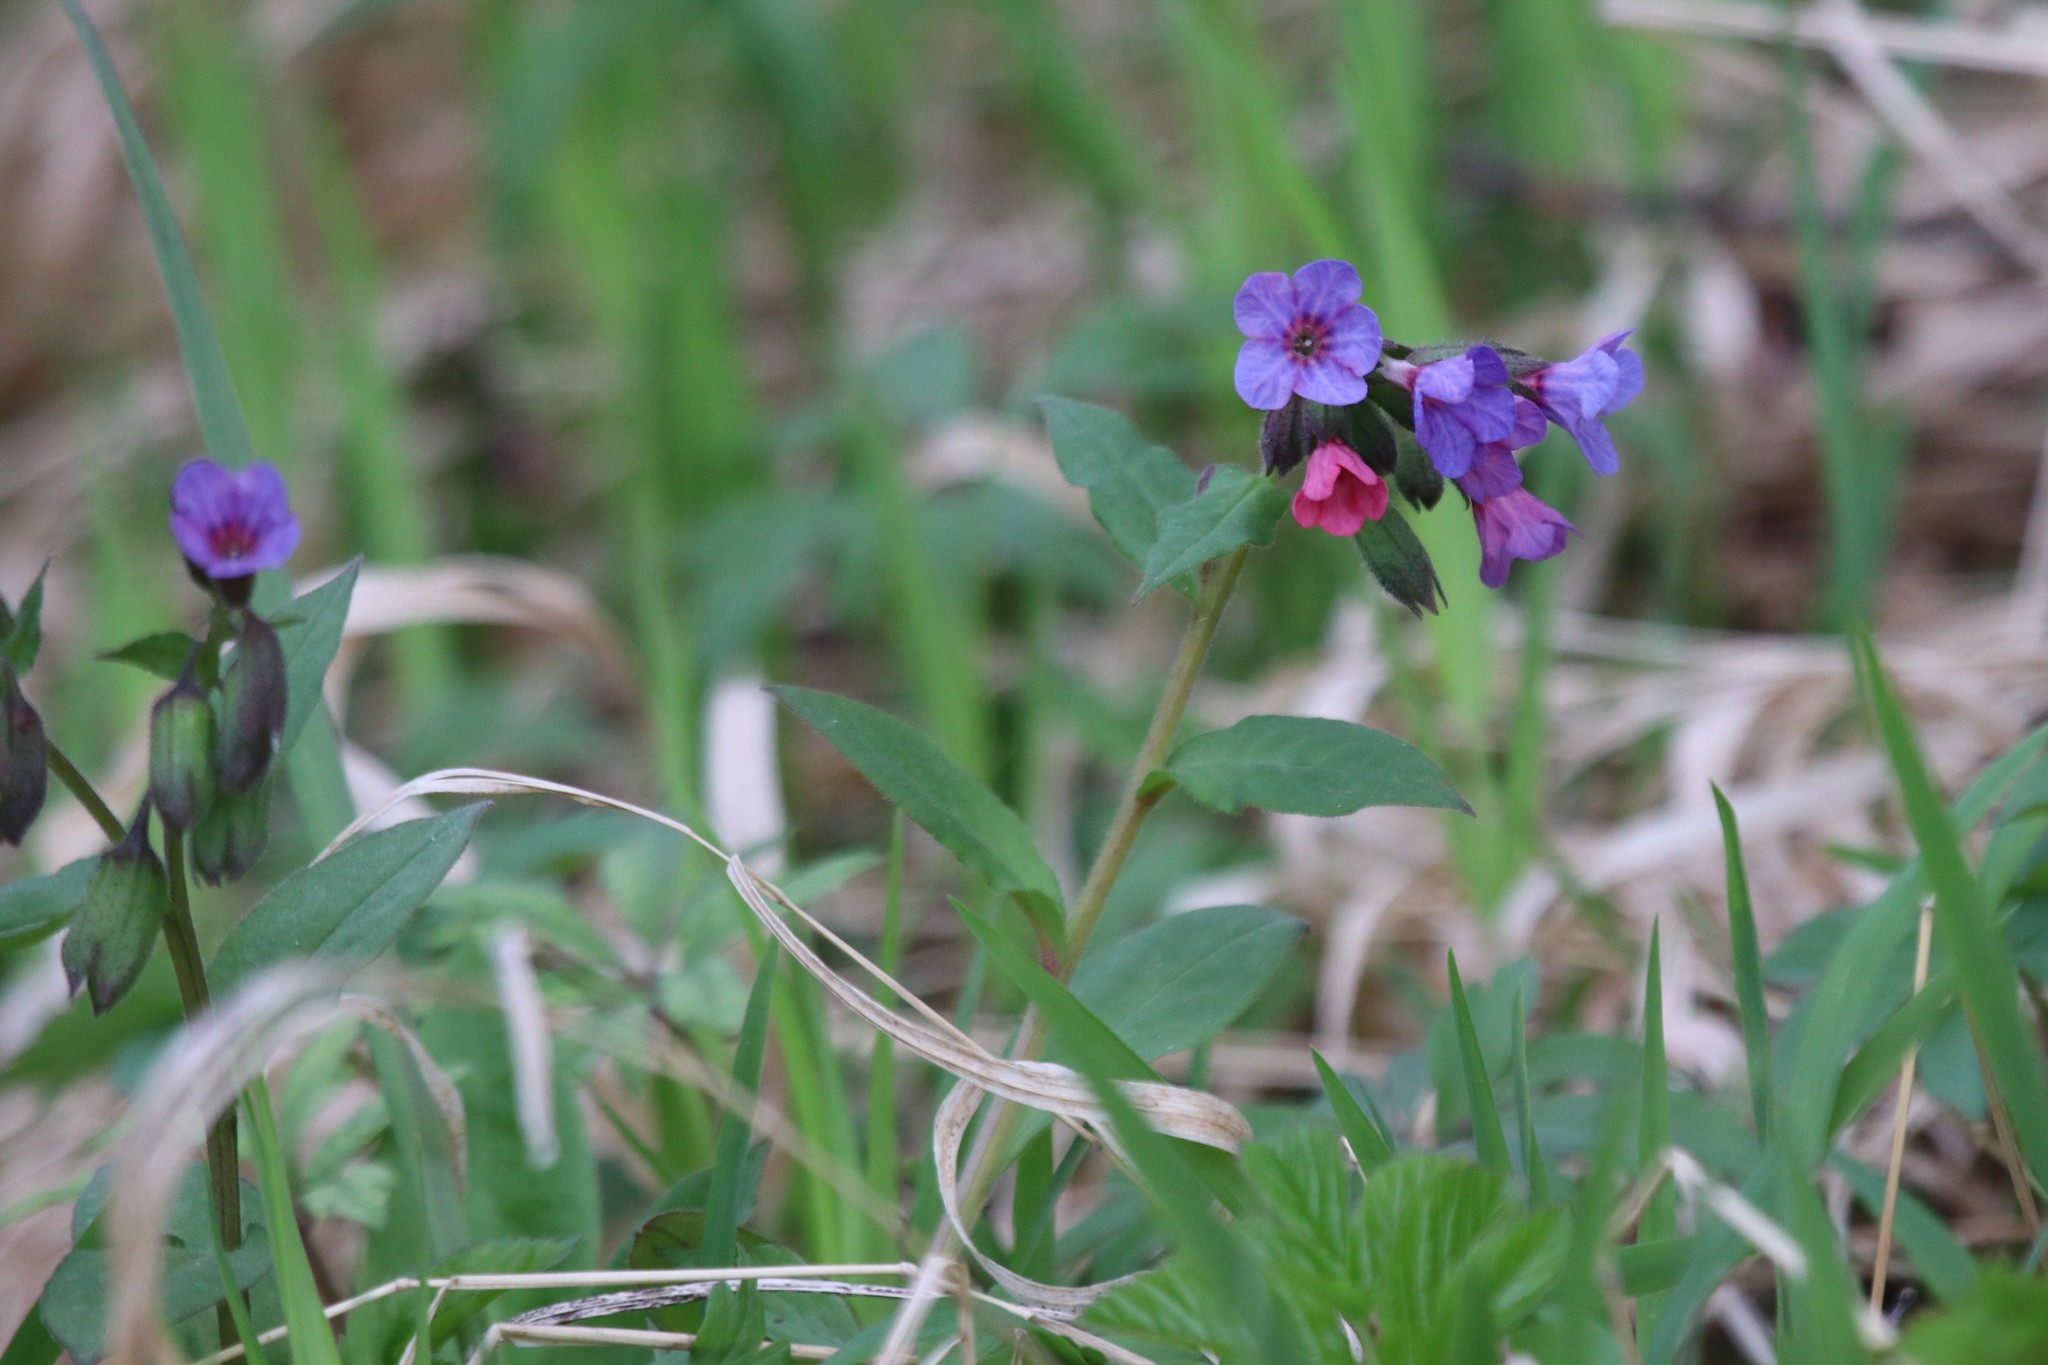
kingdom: Plantae
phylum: Tracheophyta
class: Magnoliopsida
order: Boraginales
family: Boraginaceae
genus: Pulmonaria
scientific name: Pulmonaria obscura
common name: Suffolk lungwort
